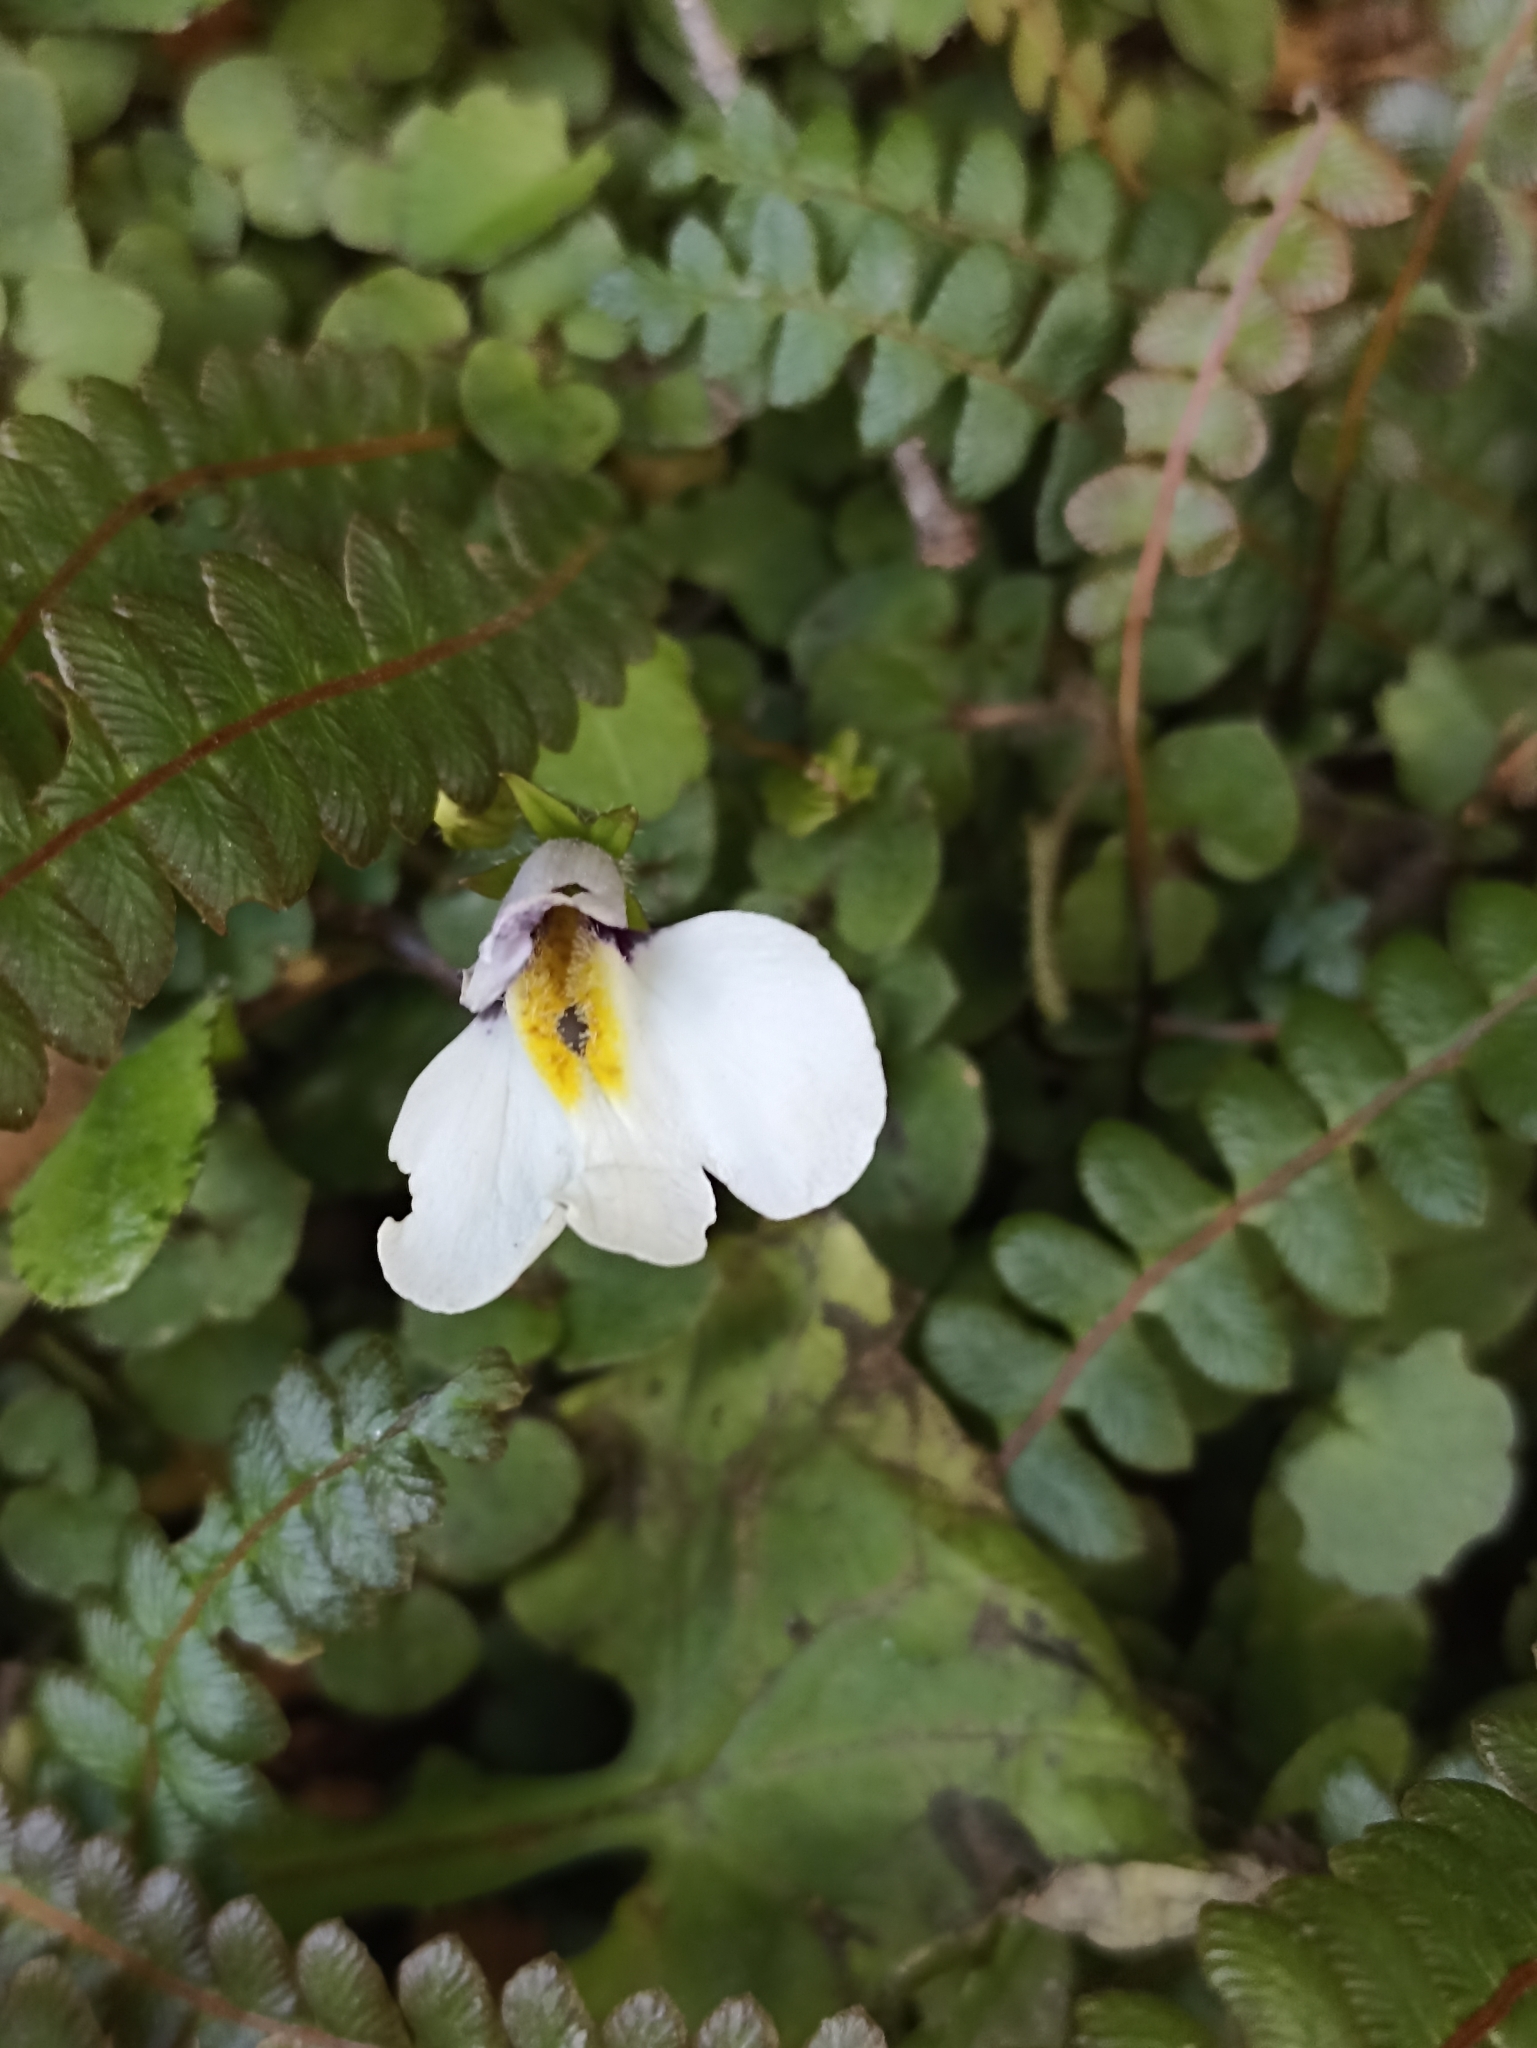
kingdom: Plantae
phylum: Tracheophyta
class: Magnoliopsida
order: Lamiales
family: Mazaceae
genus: Mazus
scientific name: Mazus radicans
